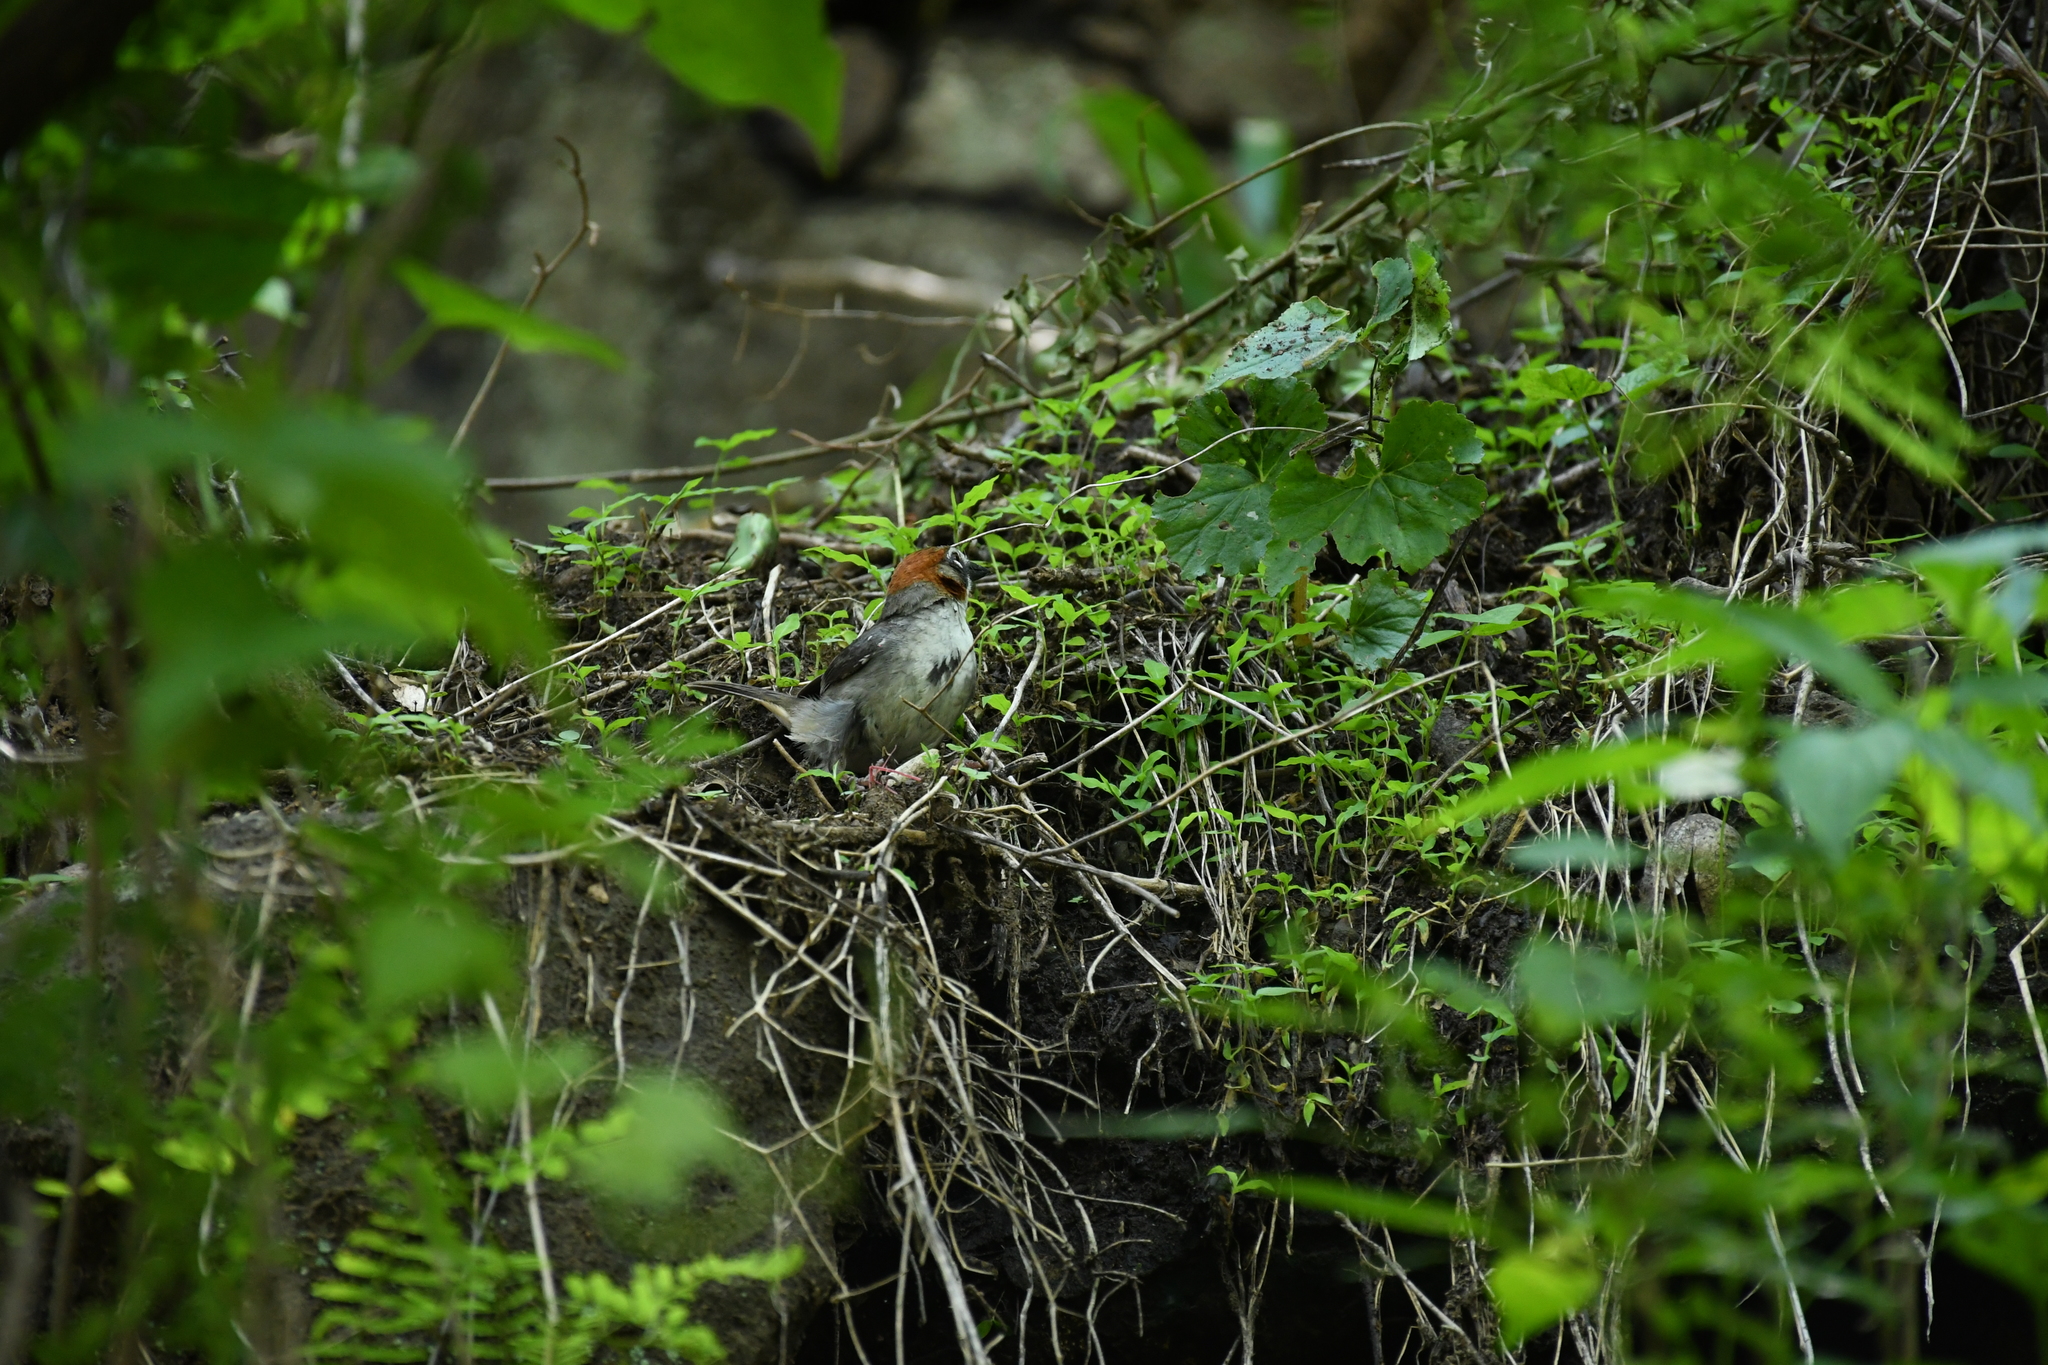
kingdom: Animalia
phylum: Chordata
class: Aves
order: Passeriformes
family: Passerellidae
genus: Melozone
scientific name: Melozone kieneri
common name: Rusty-crowned ground-sparrow
